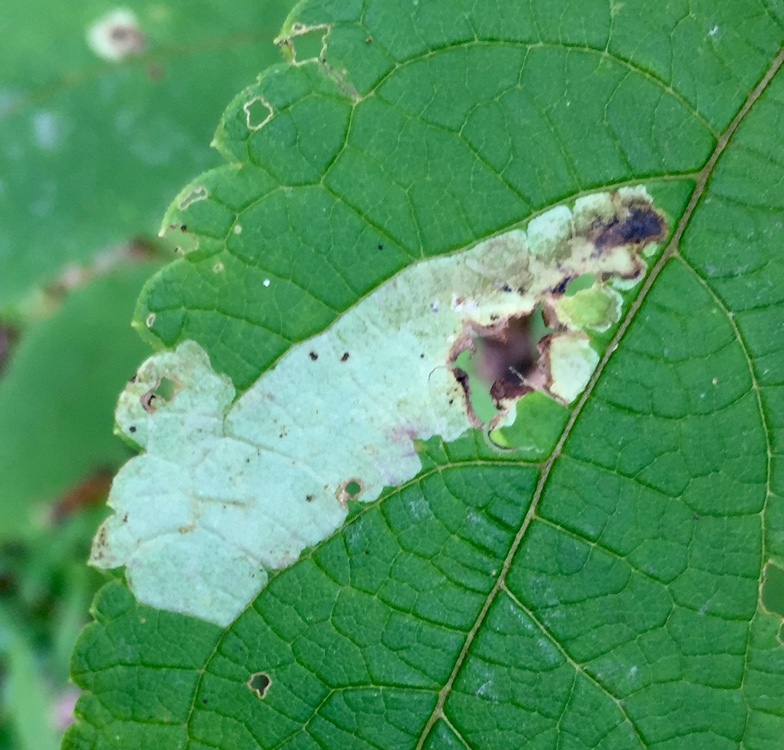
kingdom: Animalia
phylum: Arthropoda
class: Insecta
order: Diptera
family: Agromyzidae
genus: Calycomyza
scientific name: Calycomyza flavinotum
